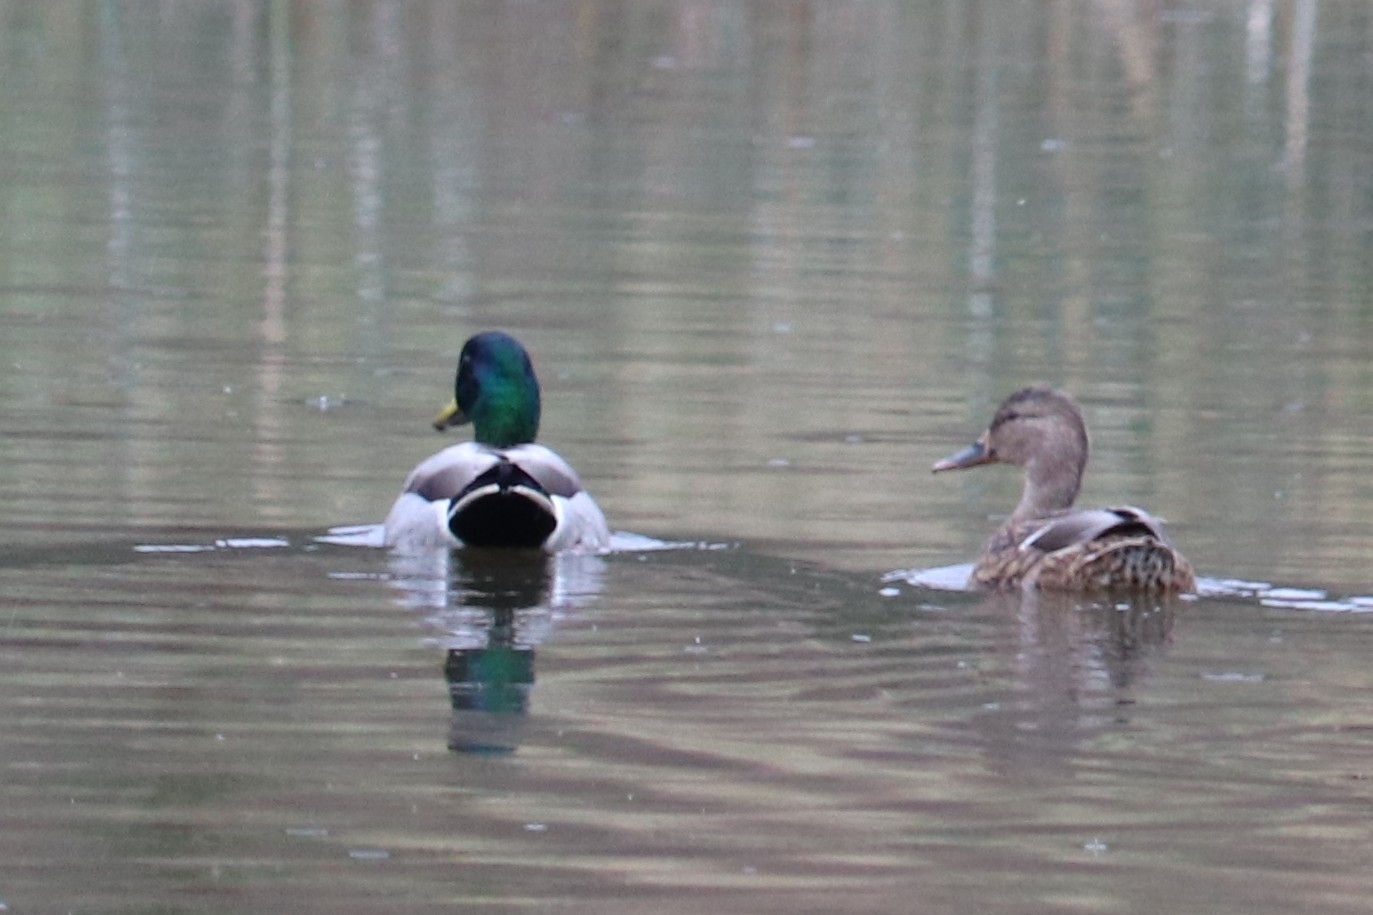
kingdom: Animalia
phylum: Chordata
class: Aves
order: Anseriformes
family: Anatidae
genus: Anas
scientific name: Anas platyrhynchos
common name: Mallard
